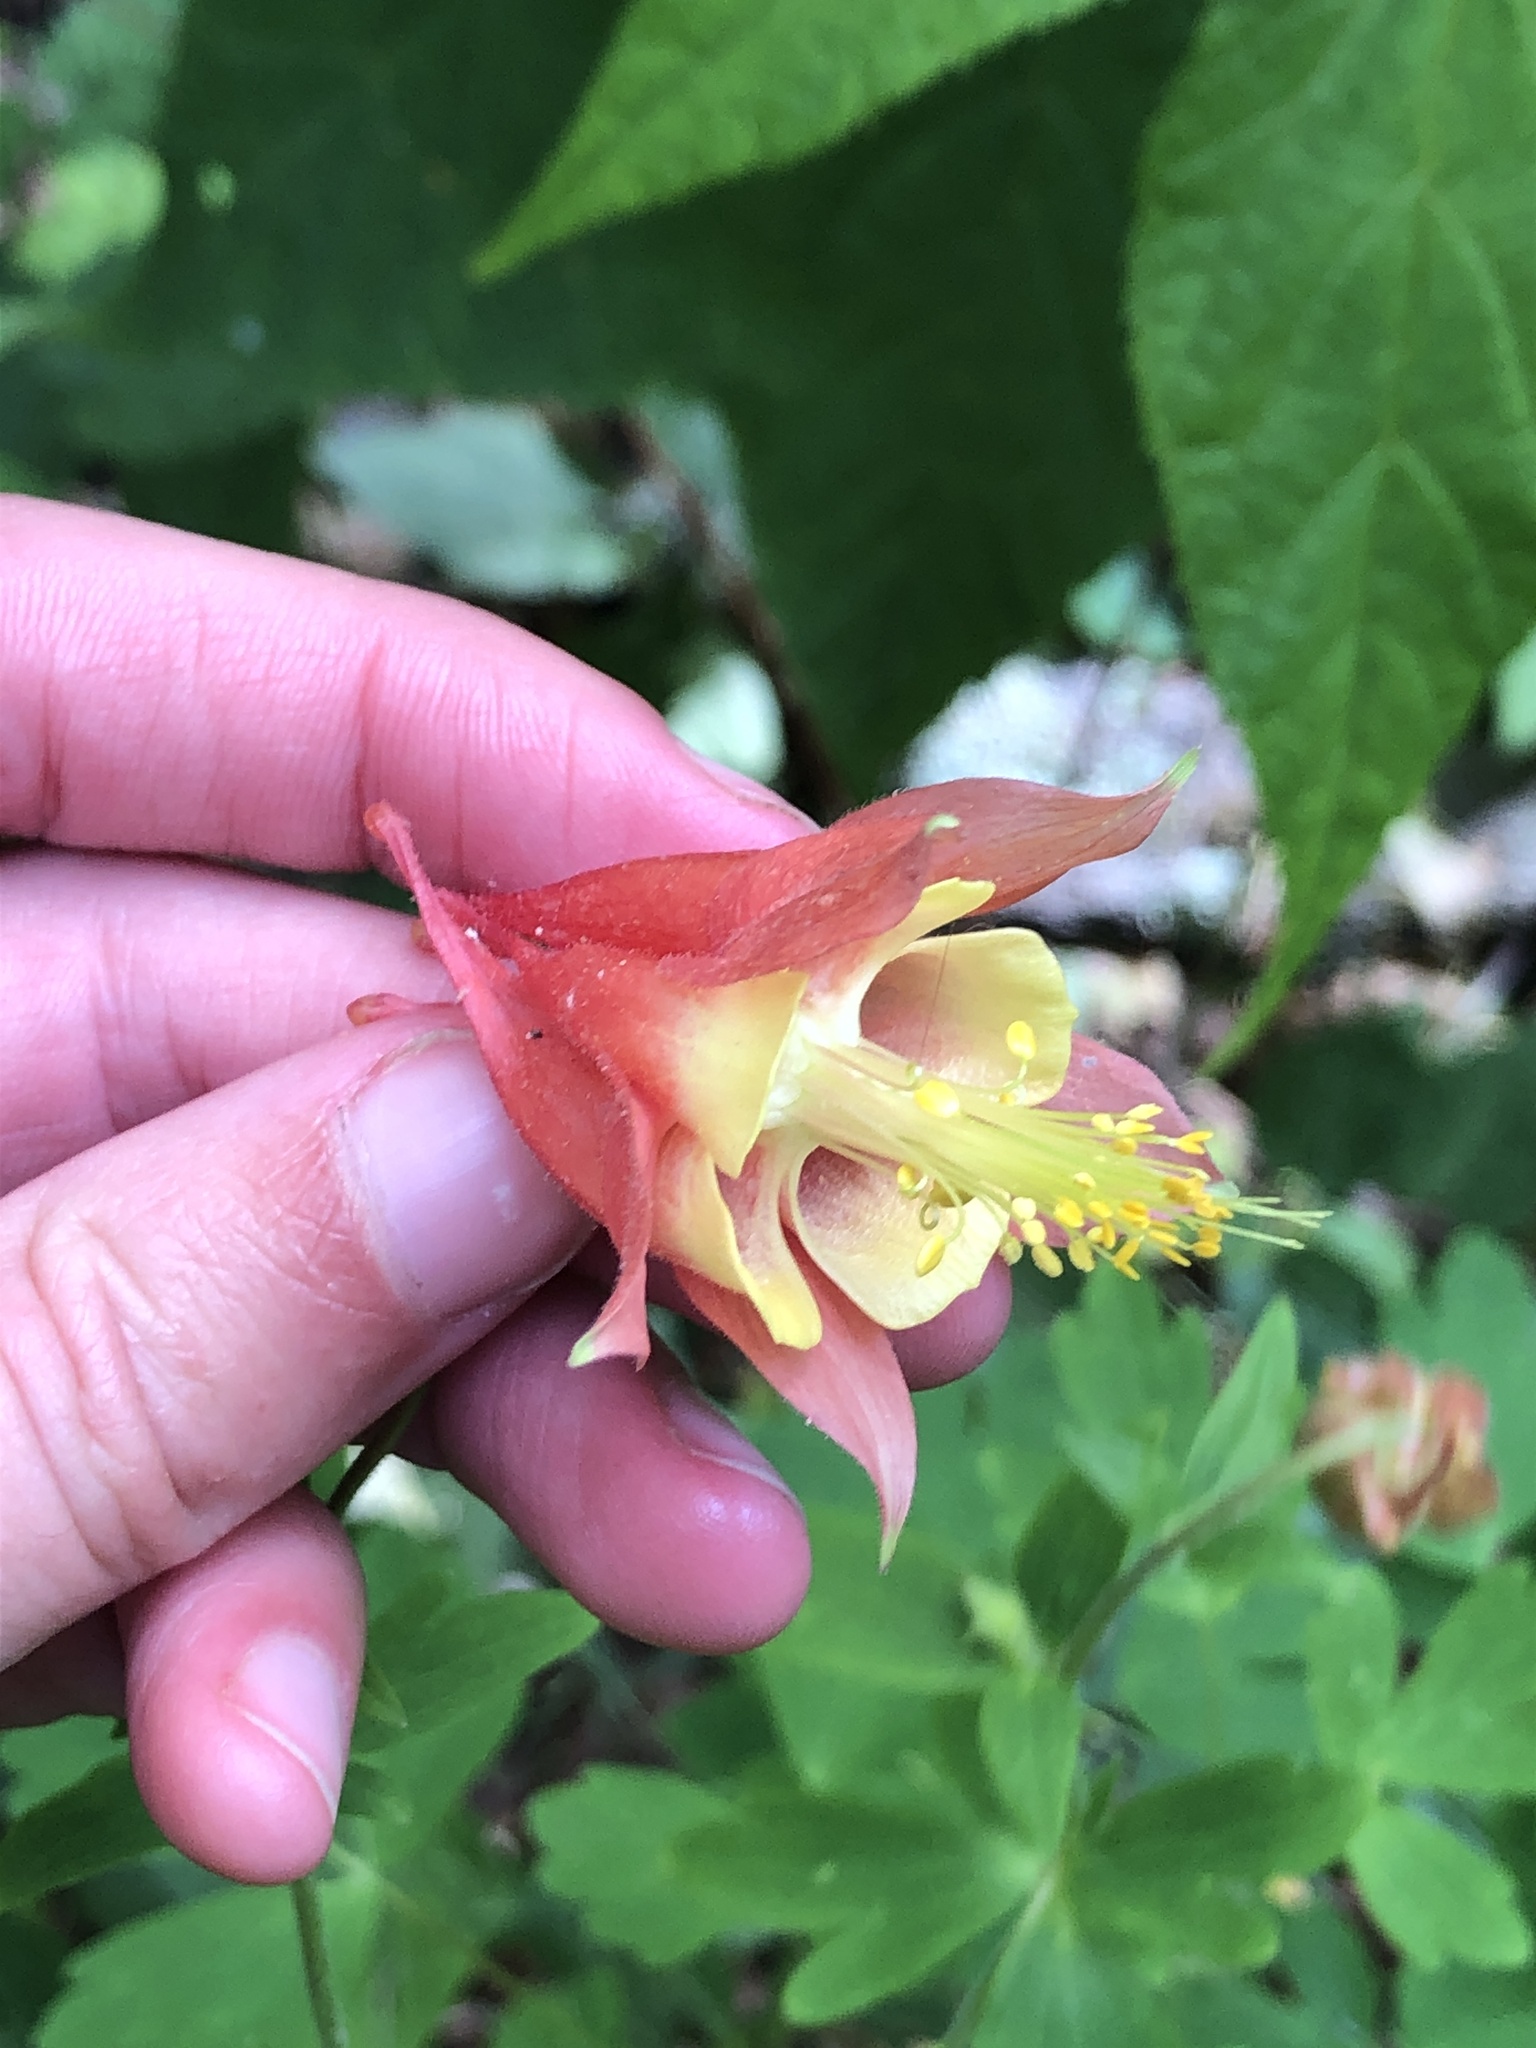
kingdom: Plantae
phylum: Tracheophyta
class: Magnoliopsida
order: Ranunculales
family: Ranunculaceae
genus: Aquilegia
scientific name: Aquilegia canadensis
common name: American columbine
